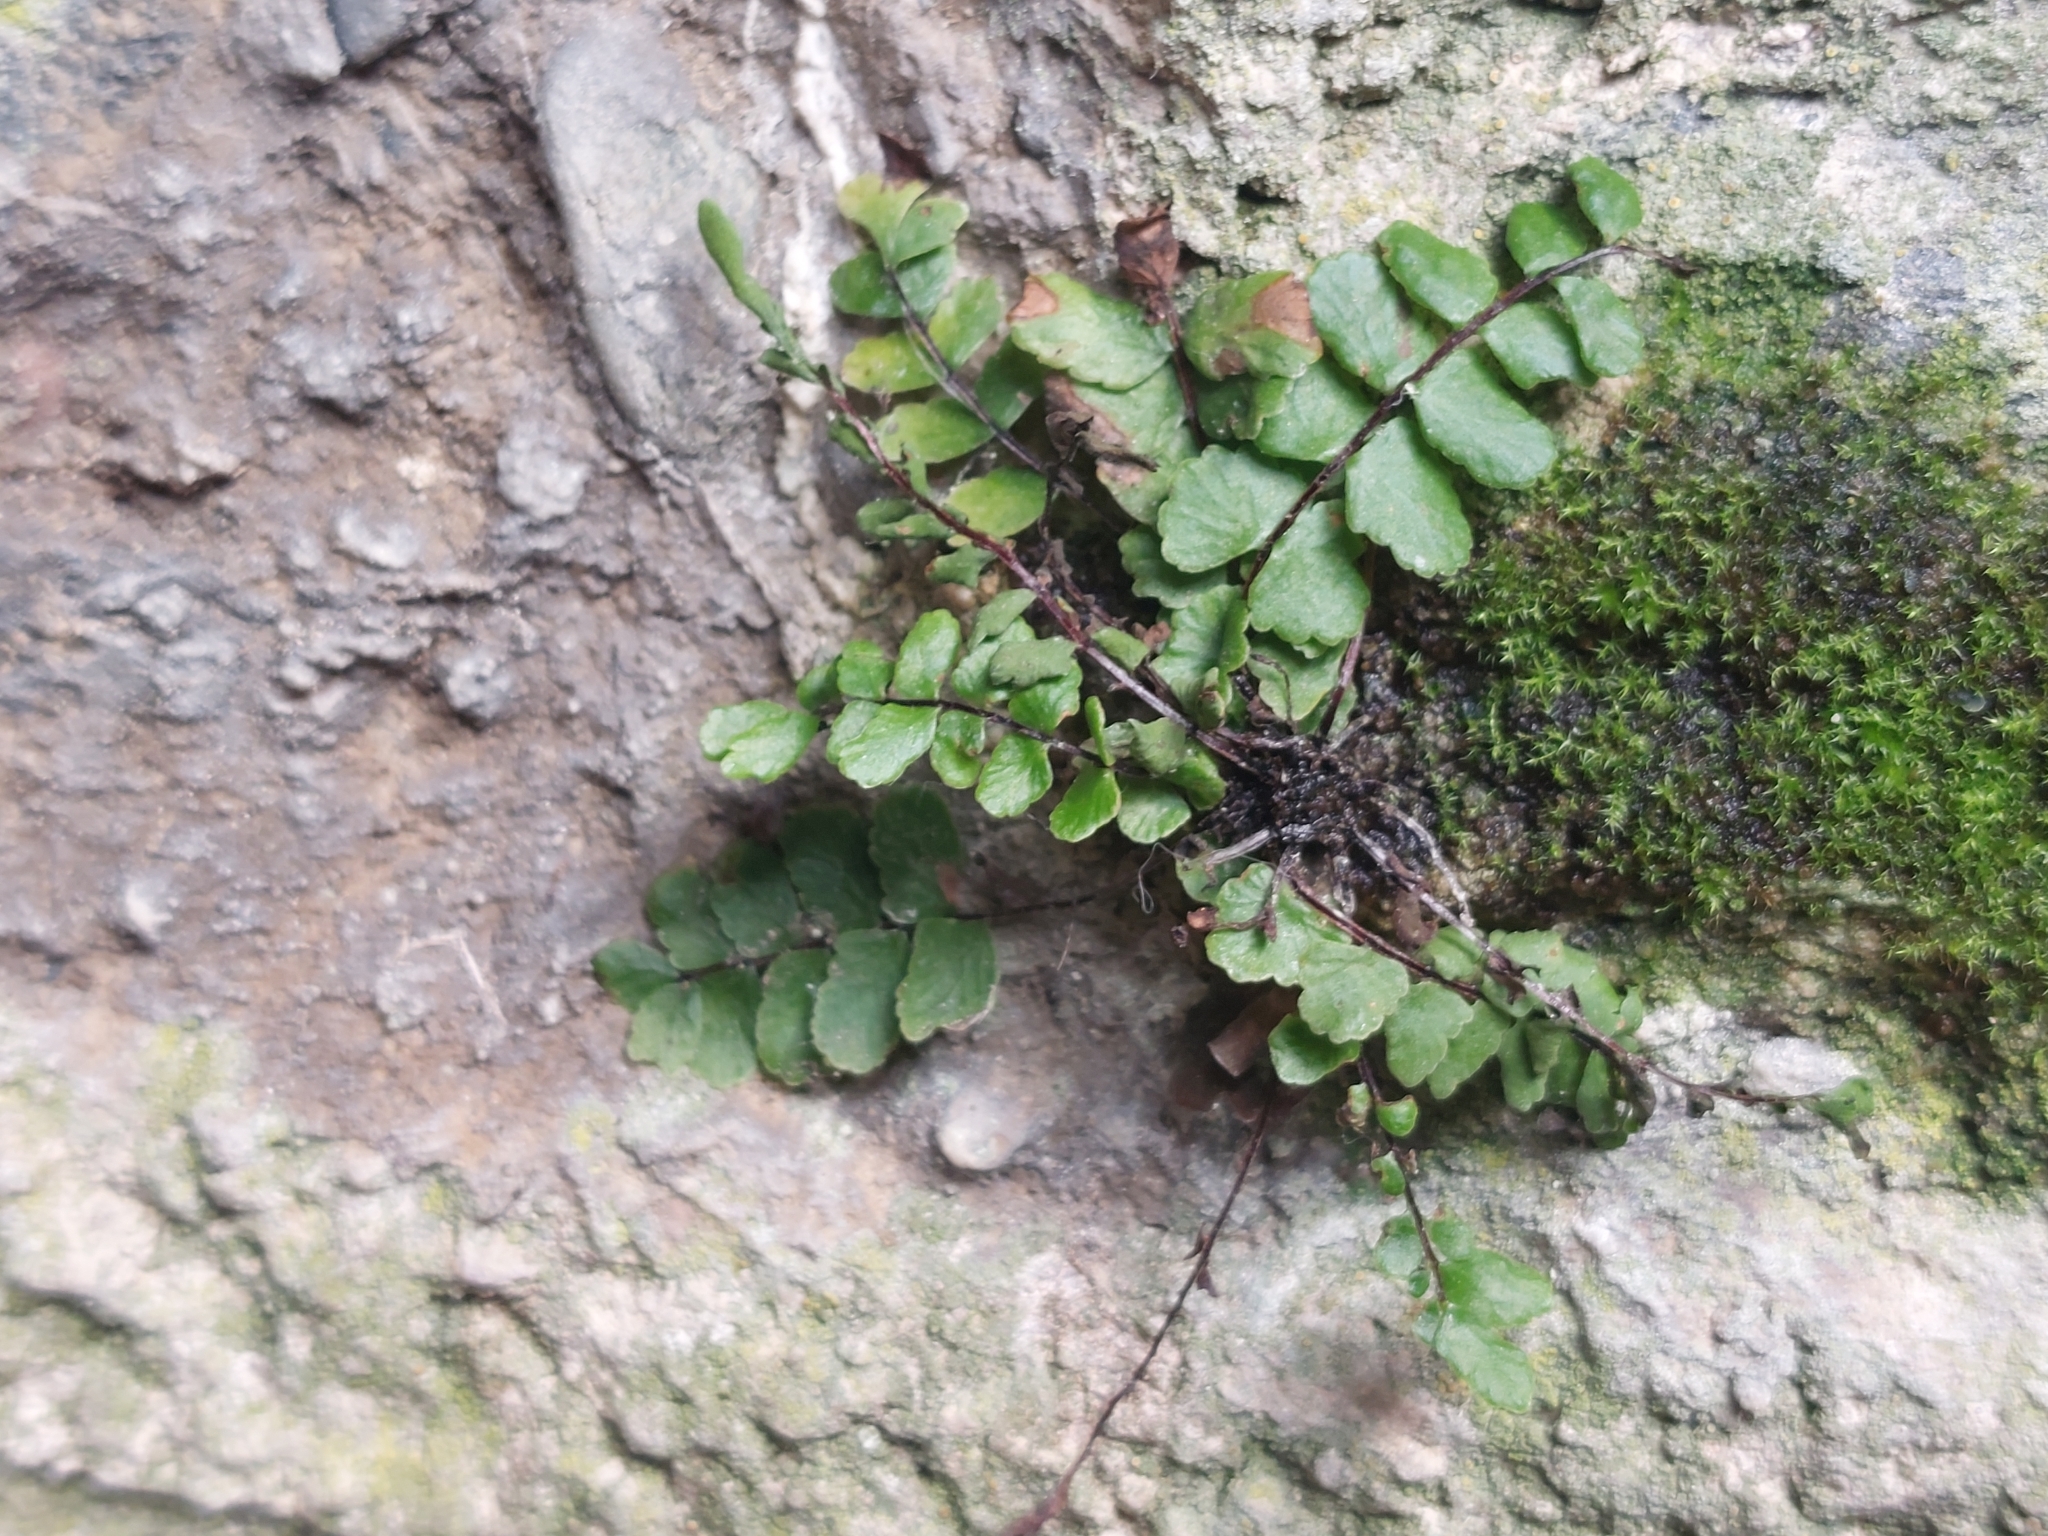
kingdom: Plantae
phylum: Tracheophyta
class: Polypodiopsida
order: Polypodiales
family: Aspleniaceae
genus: Asplenium
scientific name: Asplenium trichomanes
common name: Maidenhair spleenwort
